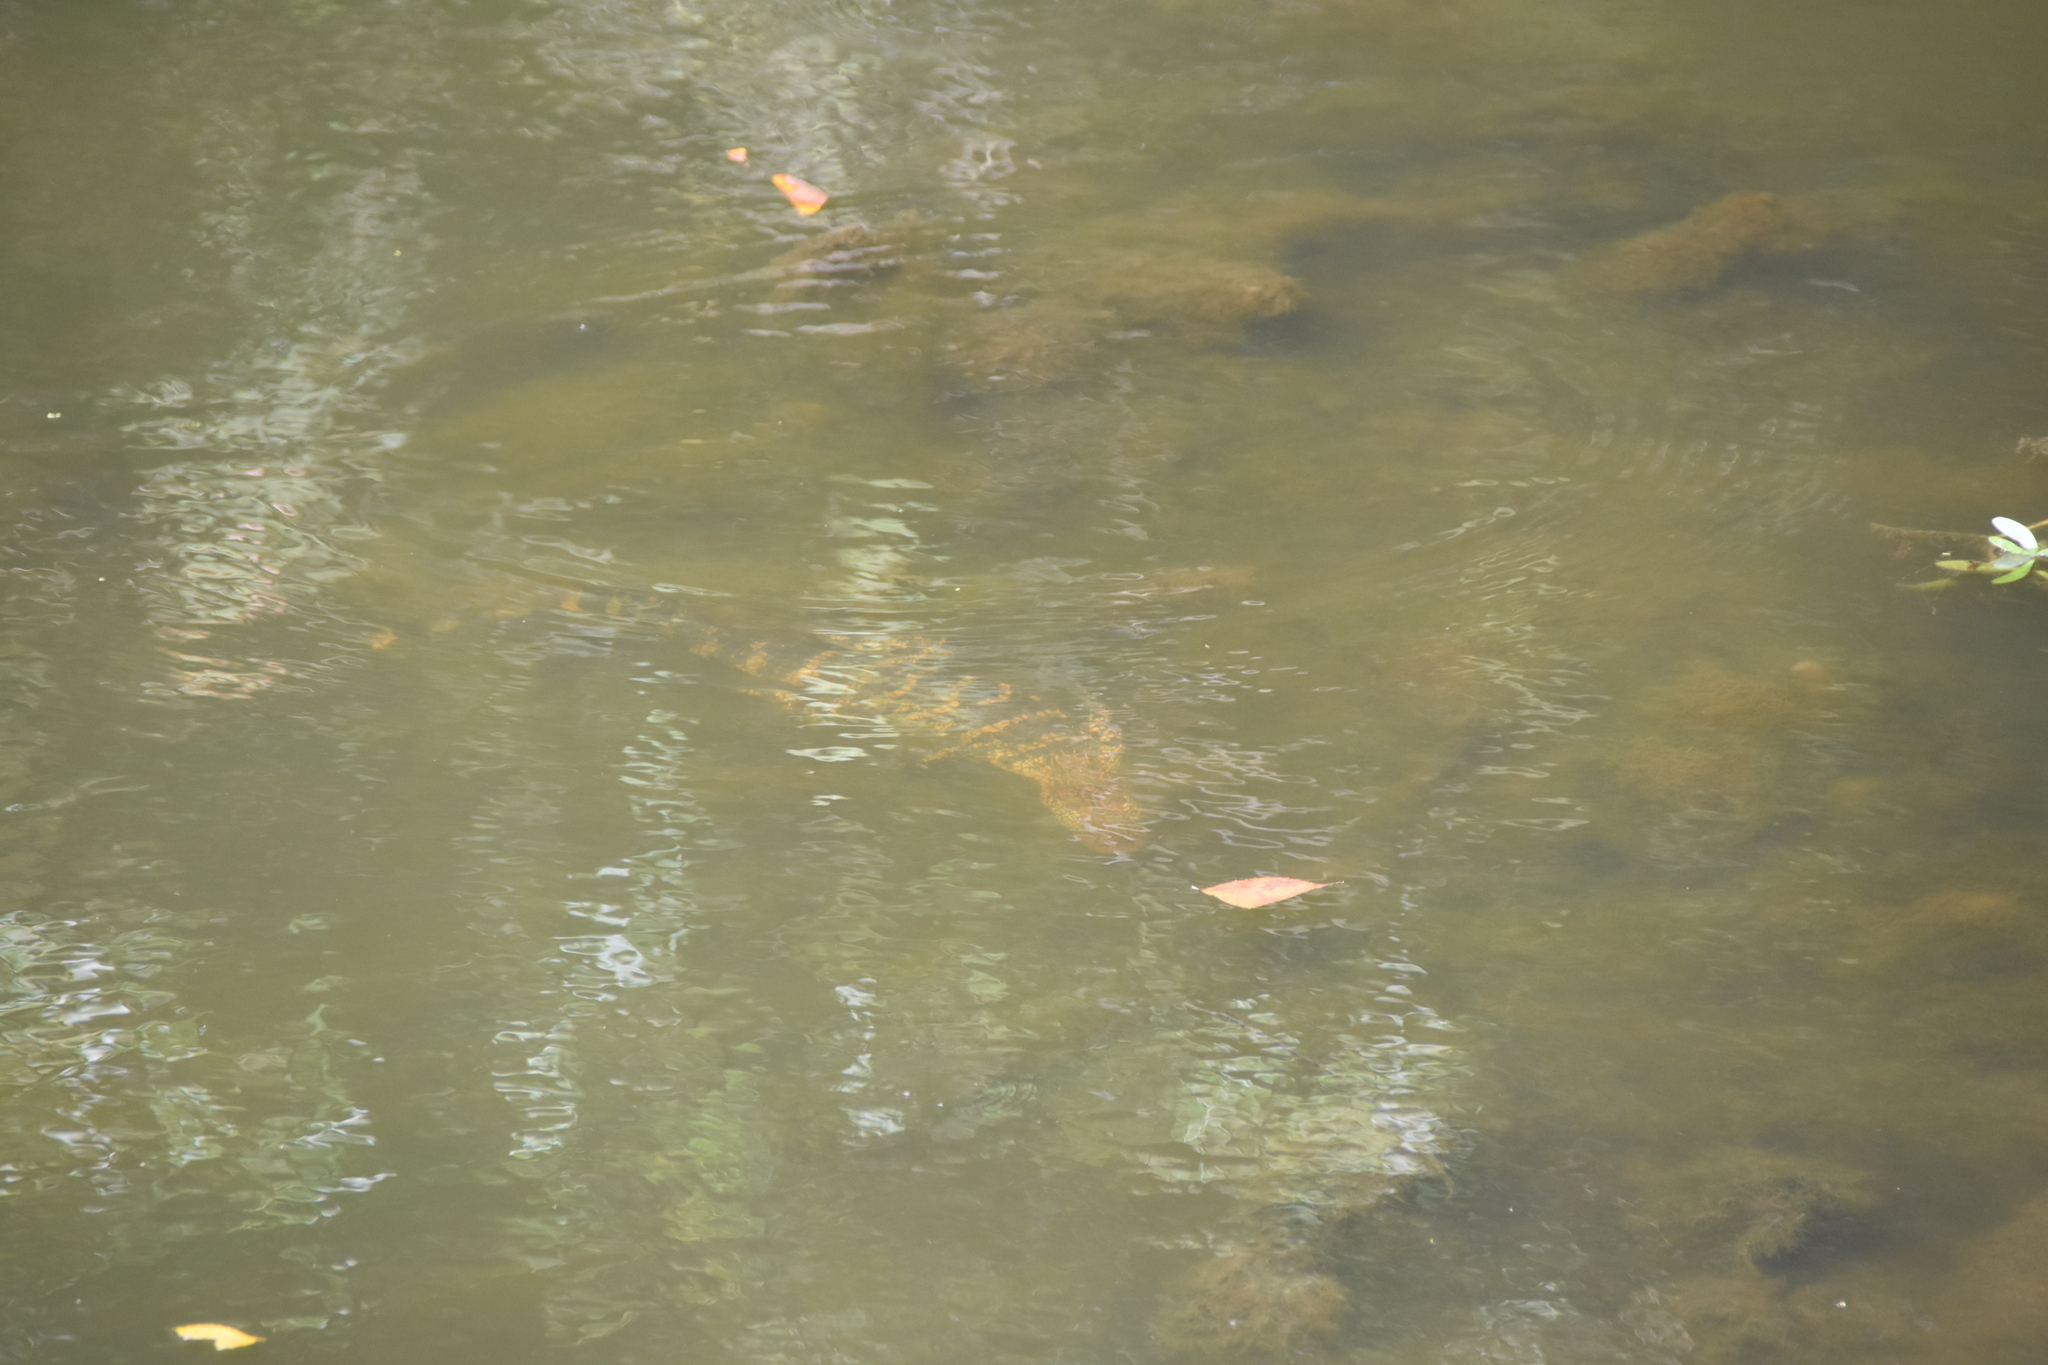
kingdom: Animalia
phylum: Chordata
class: Crocodylia
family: Alligatoridae
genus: Alligator
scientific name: Alligator mississippiensis
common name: American alligator
